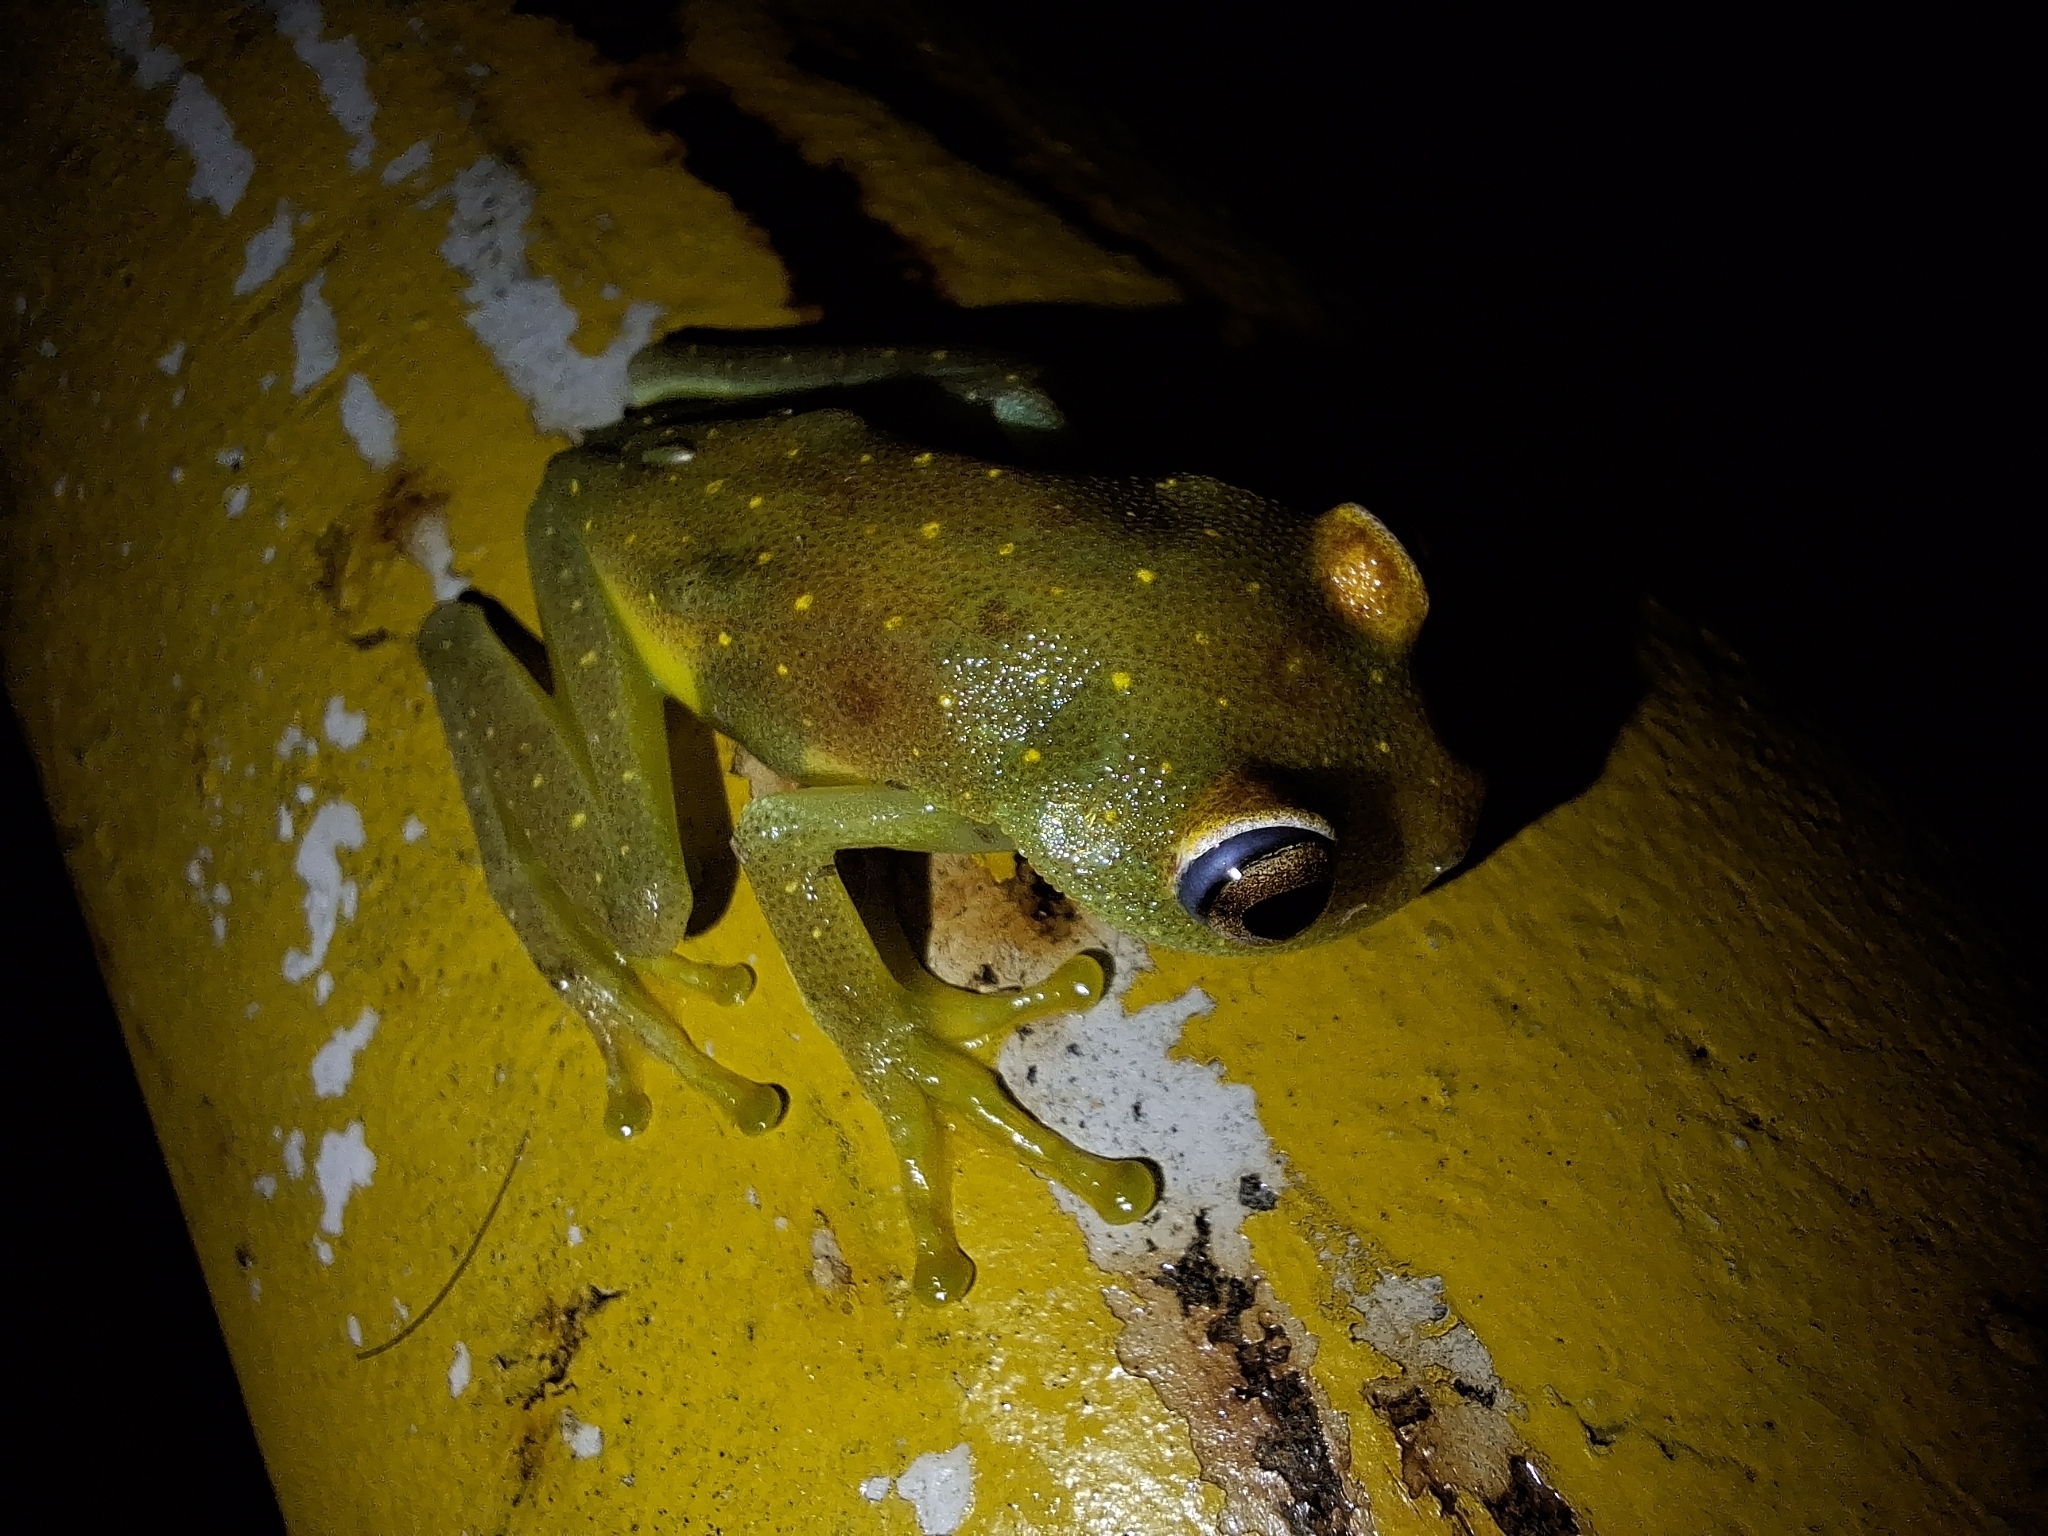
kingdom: Animalia
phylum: Chordata
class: Amphibia
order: Anura
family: Hylidae
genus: Boana
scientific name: Boana cinerascens
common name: Demerara falls treefrog
